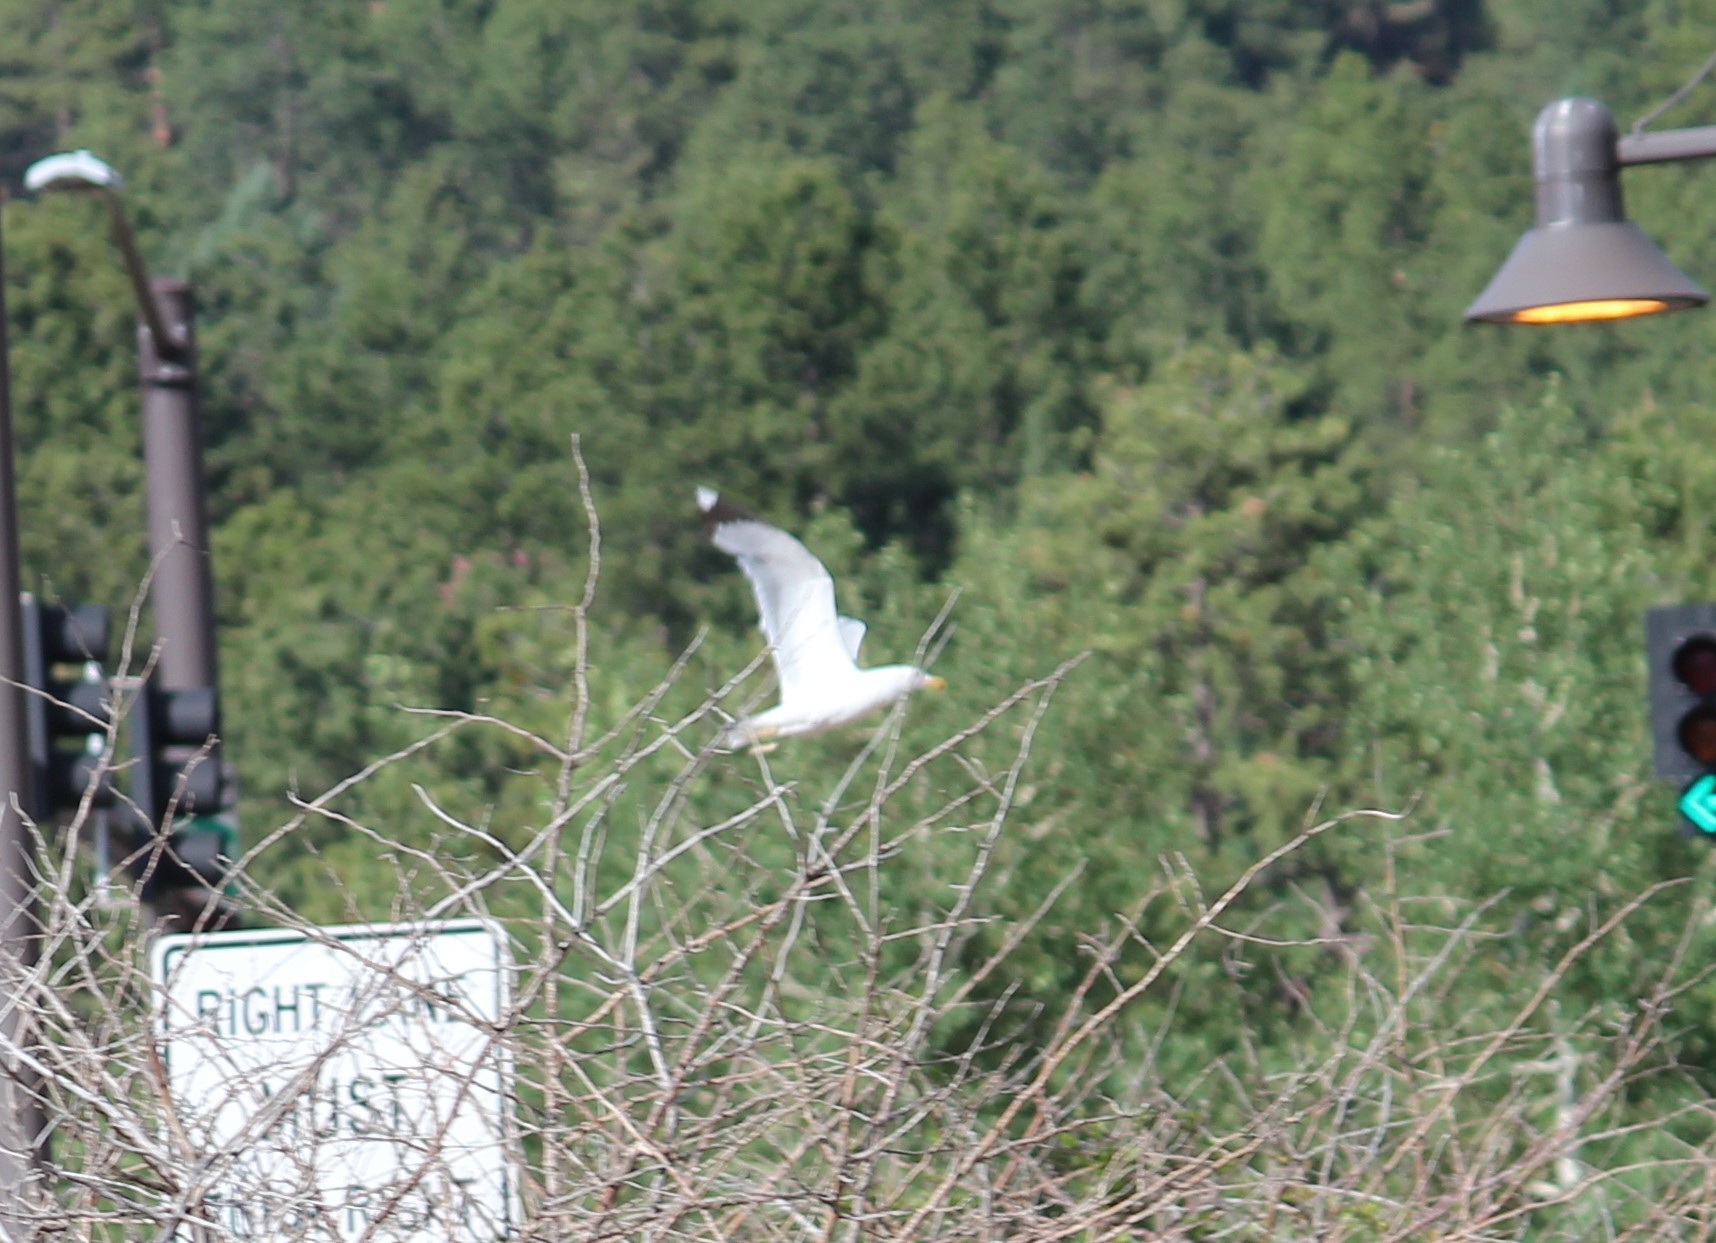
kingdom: Animalia
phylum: Chordata
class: Aves
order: Charadriiformes
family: Laridae
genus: Larus
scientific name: Larus californicus
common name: California gull
